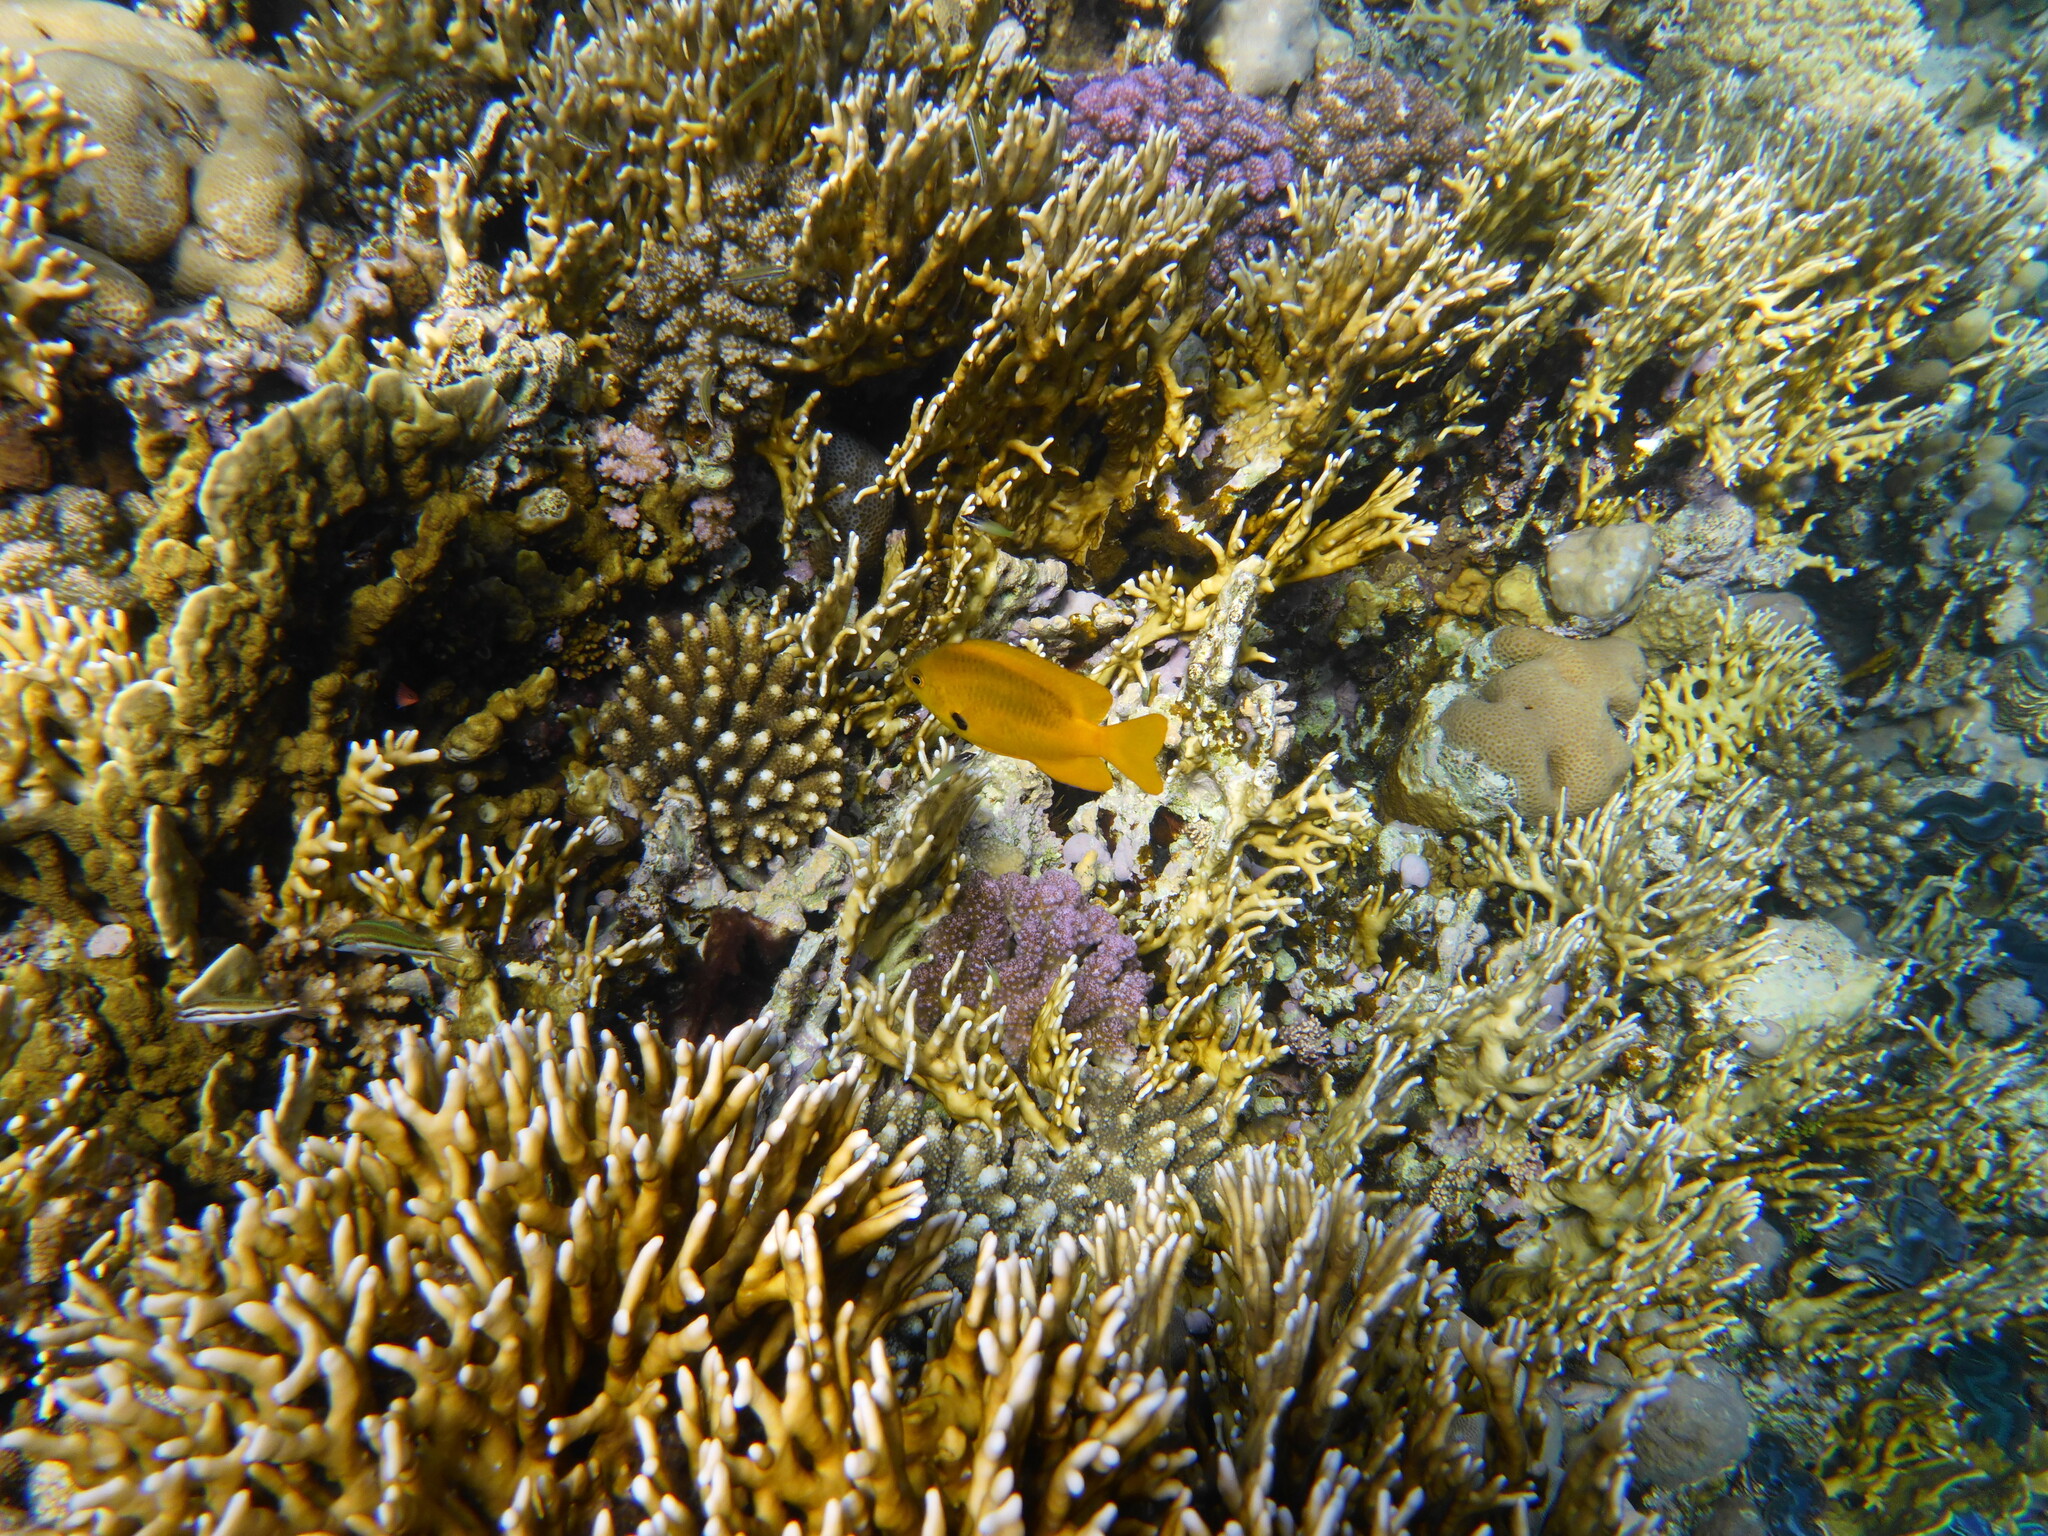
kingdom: Animalia
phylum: Chordata
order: Perciformes
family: Pomacentridae
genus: Pomacentrus
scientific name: Pomacentrus sulfureus
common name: Sulfur damsel
